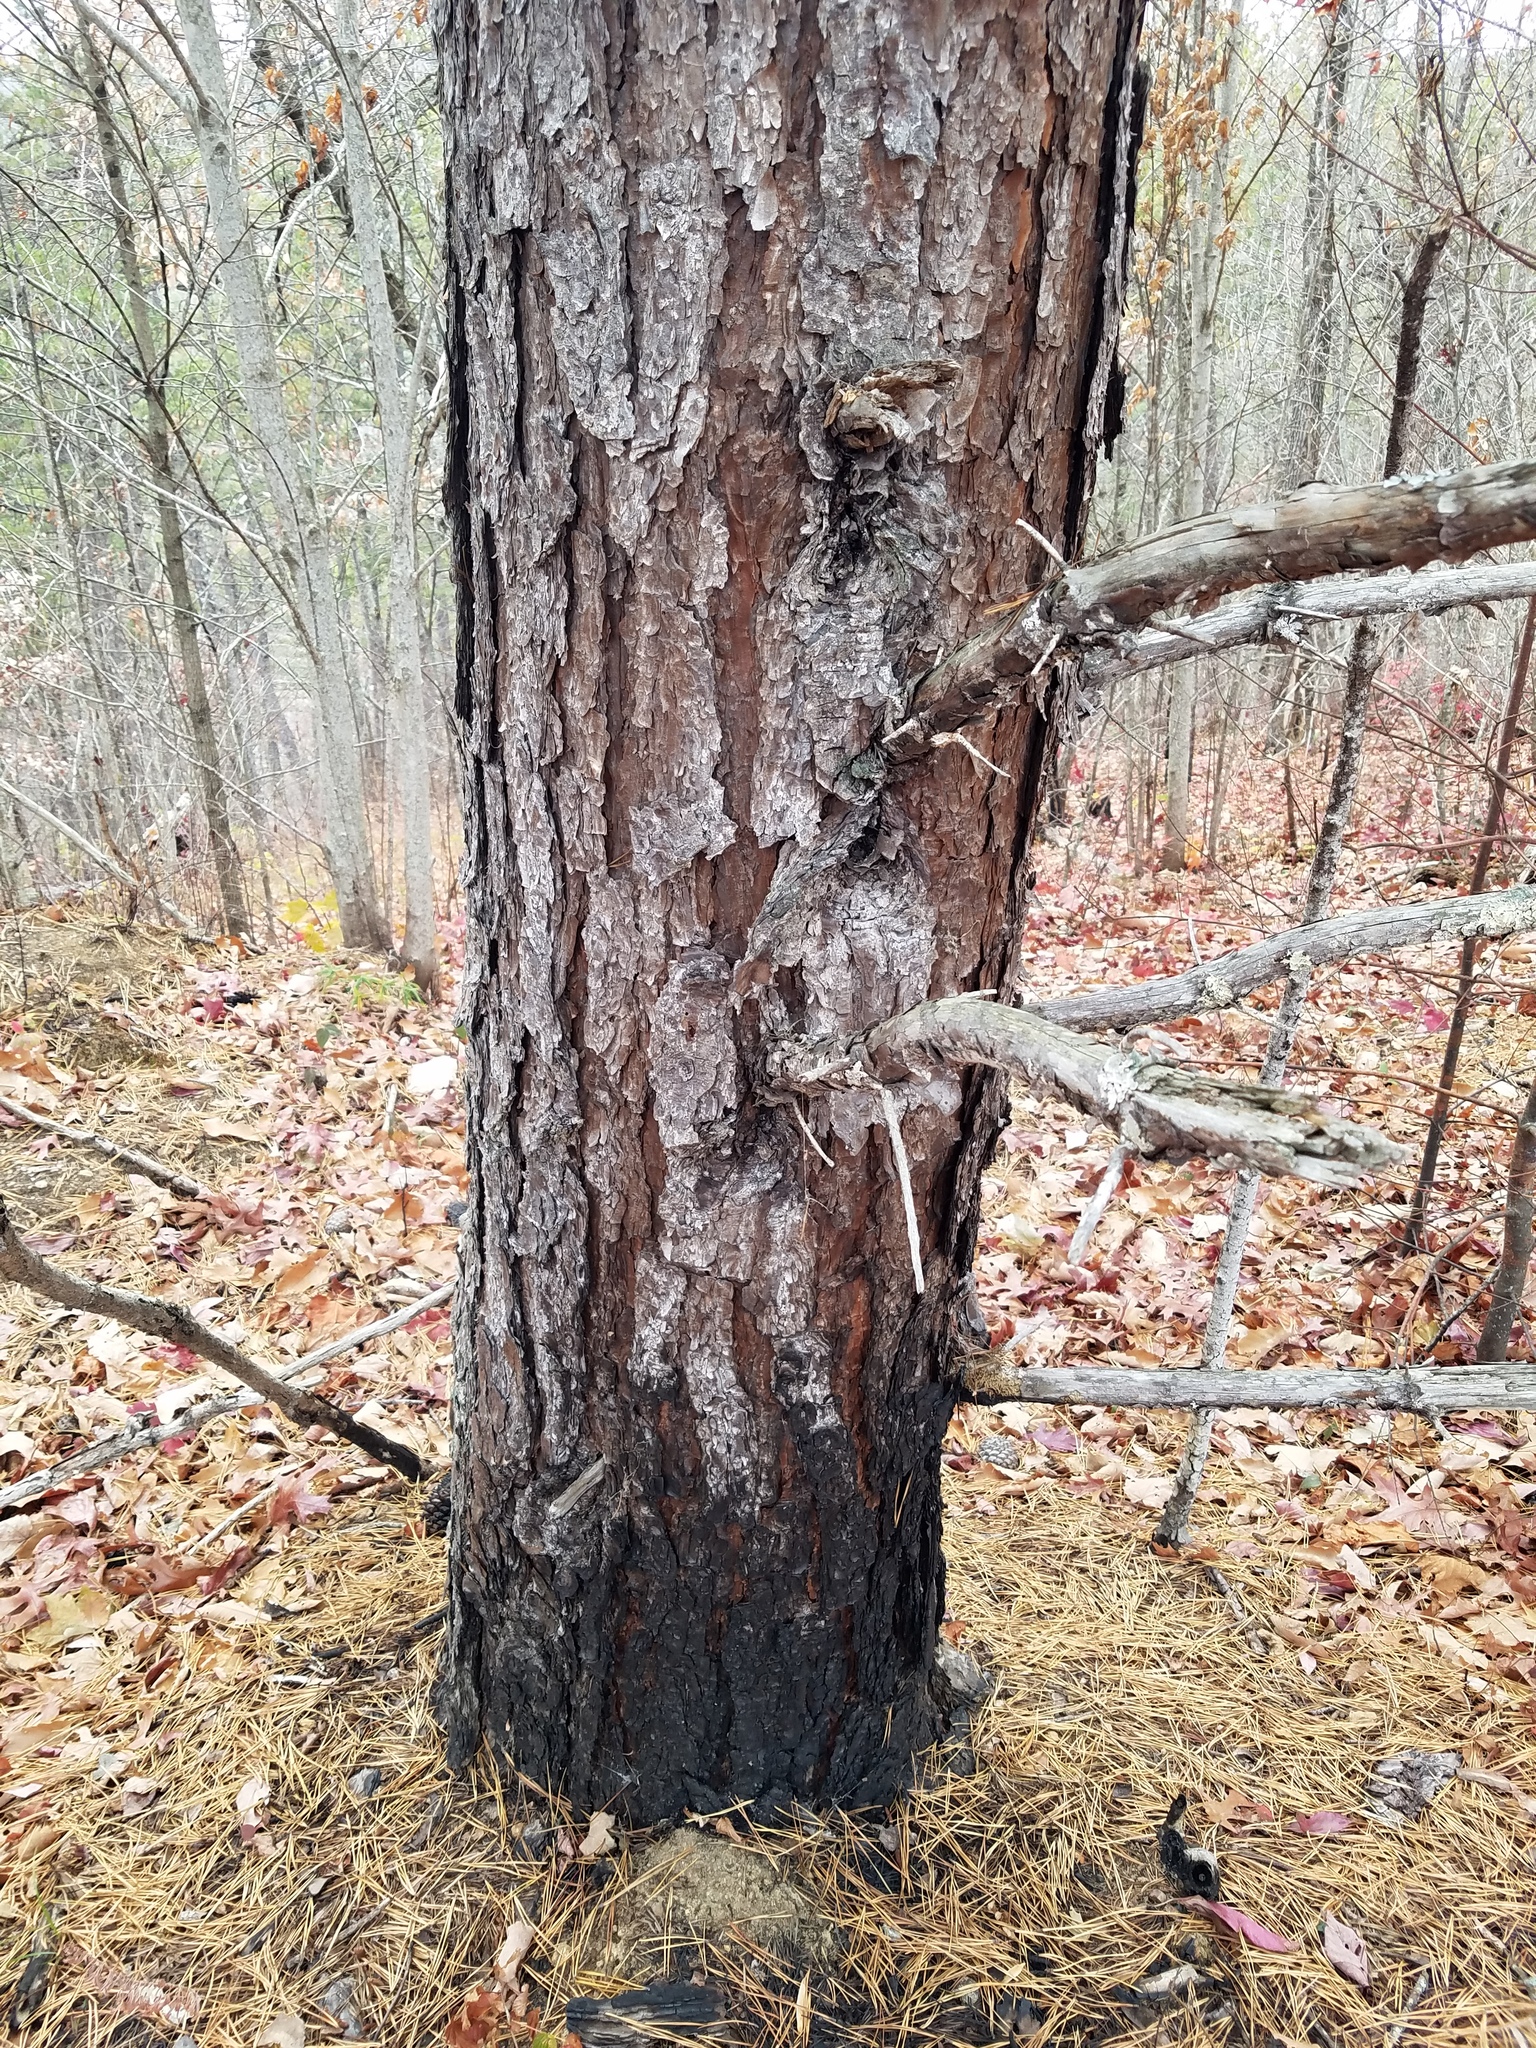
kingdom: Plantae
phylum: Tracheophyta
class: Pinopsida
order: Pinales
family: Pinaceae
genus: Pinus
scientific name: Pinus pungens
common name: Hickory pine
